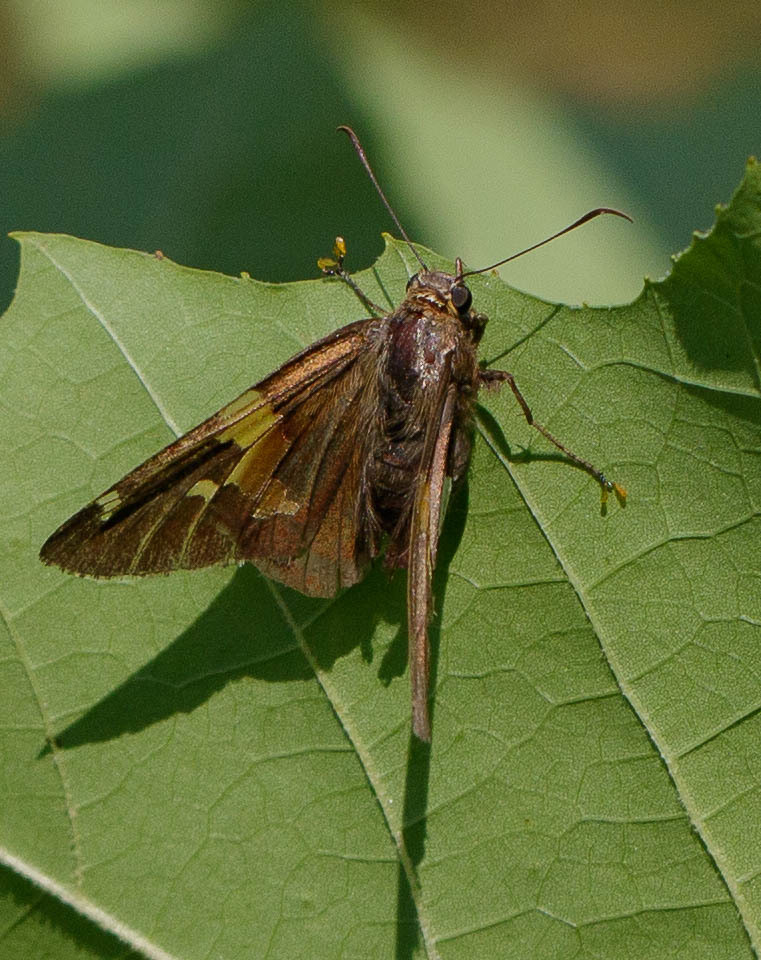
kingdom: Animalia
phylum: Arthropoda
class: Insecta
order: Lepidoptera
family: Hesperiidae
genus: Epargyreus
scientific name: Epargyreus clarus
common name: Silver-spotted skipper
